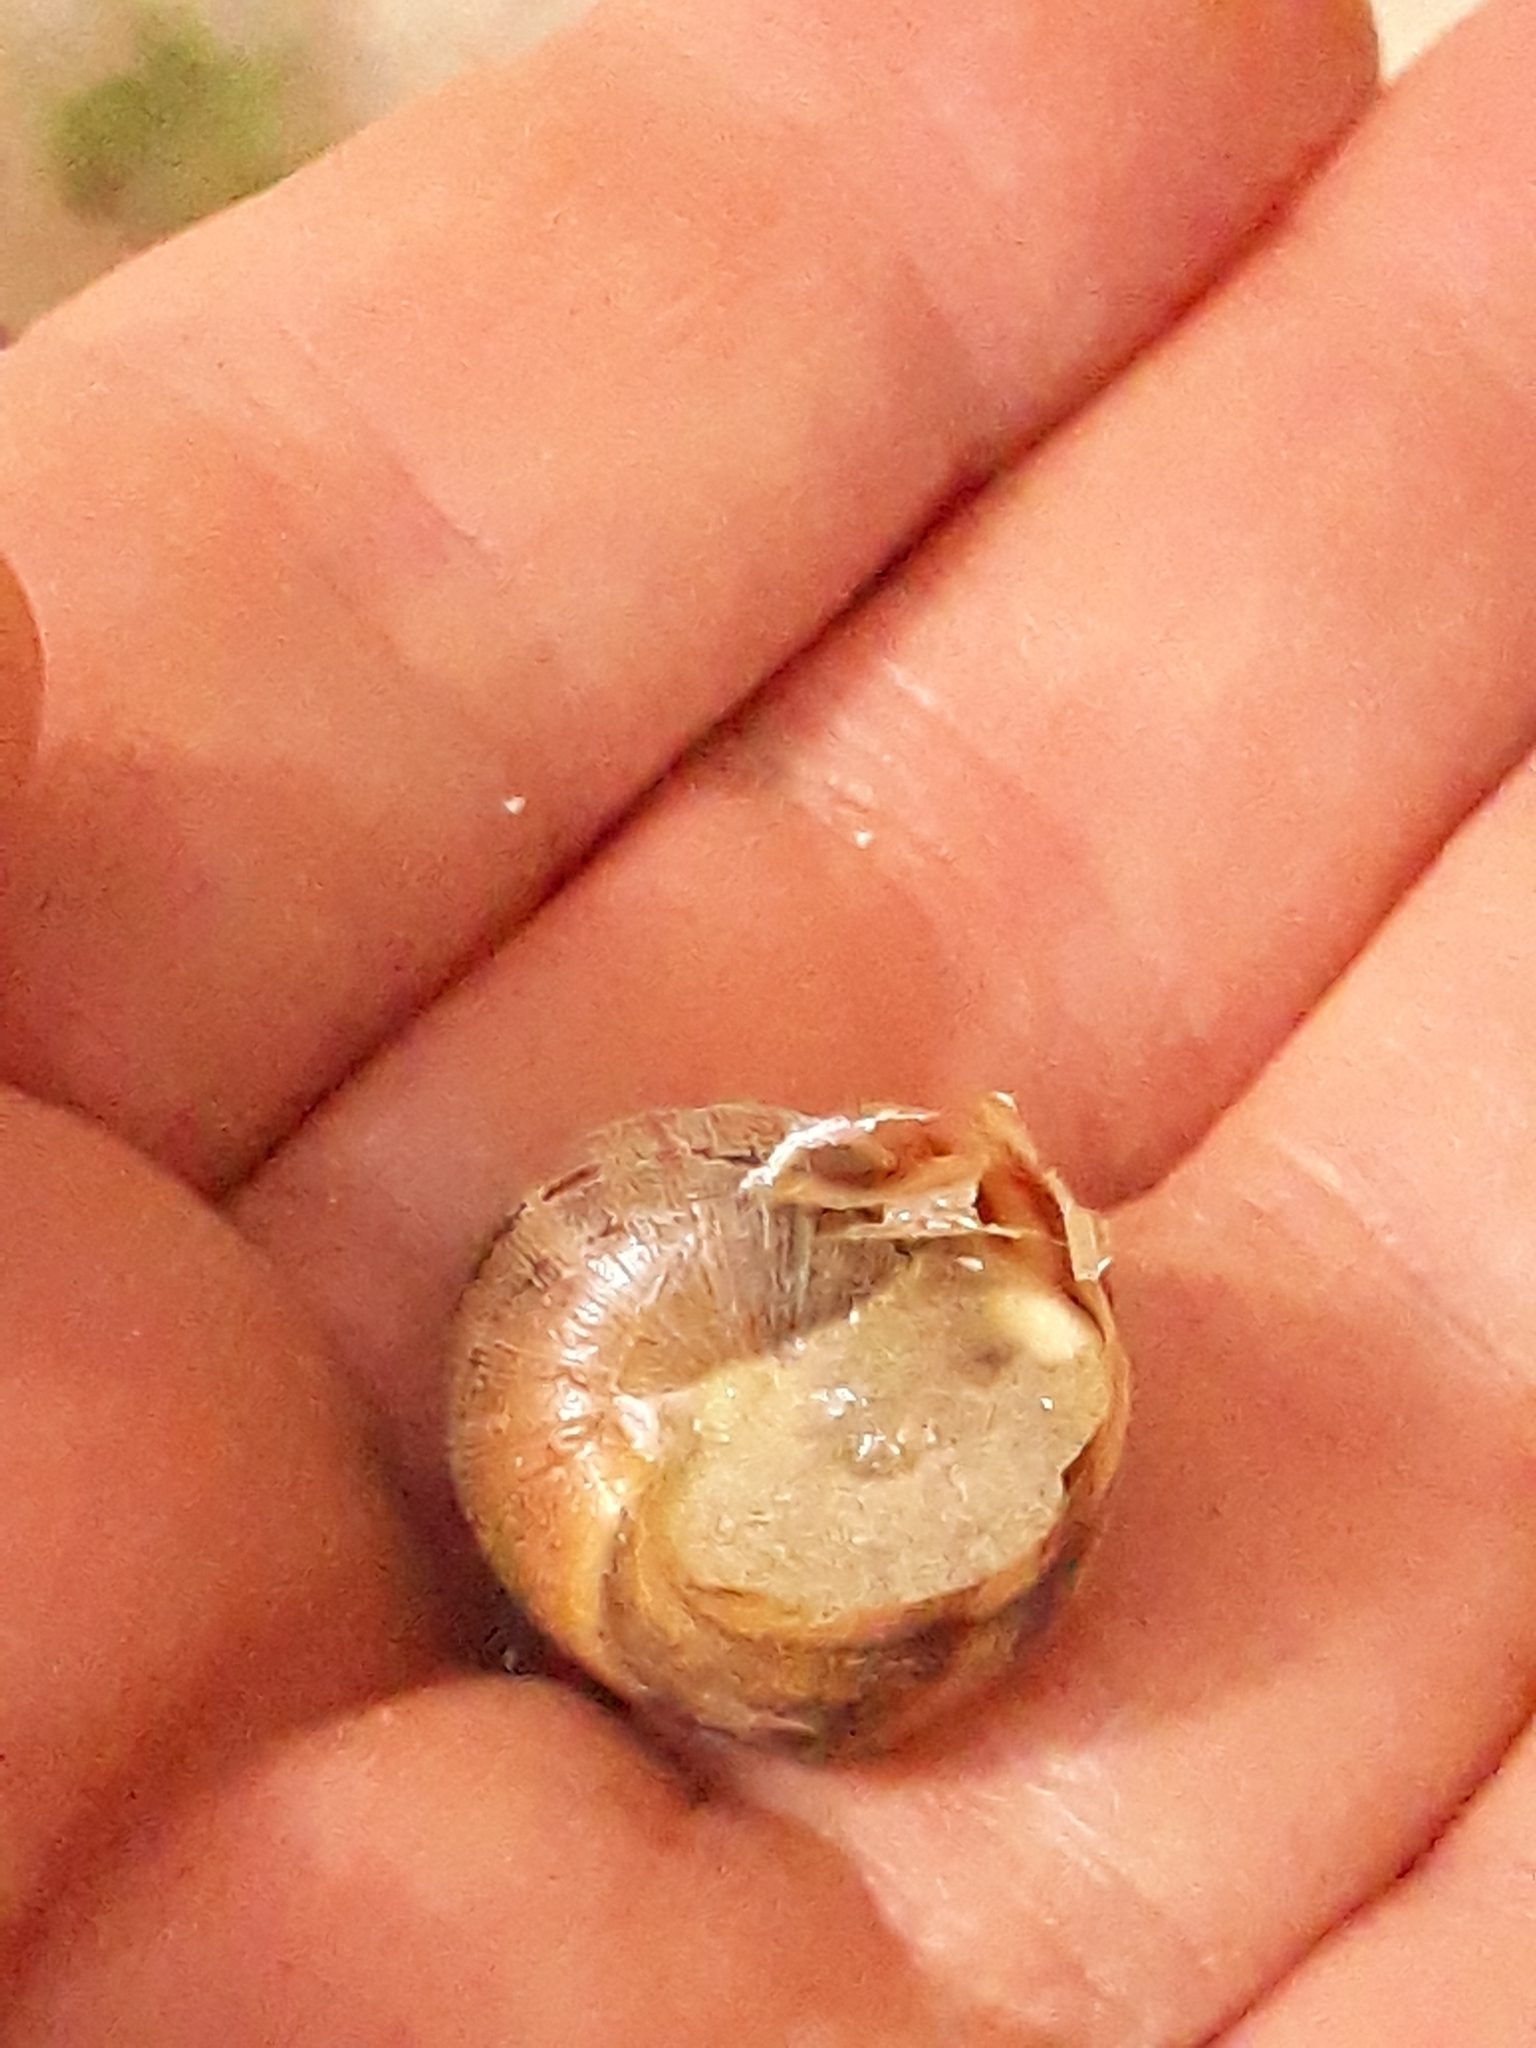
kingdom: Animalia
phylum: Mollusca
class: Gastropoda
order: Stylommatophora
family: Helicidae
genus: Cornu
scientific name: Cornu aspersum
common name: Brown garden snail
